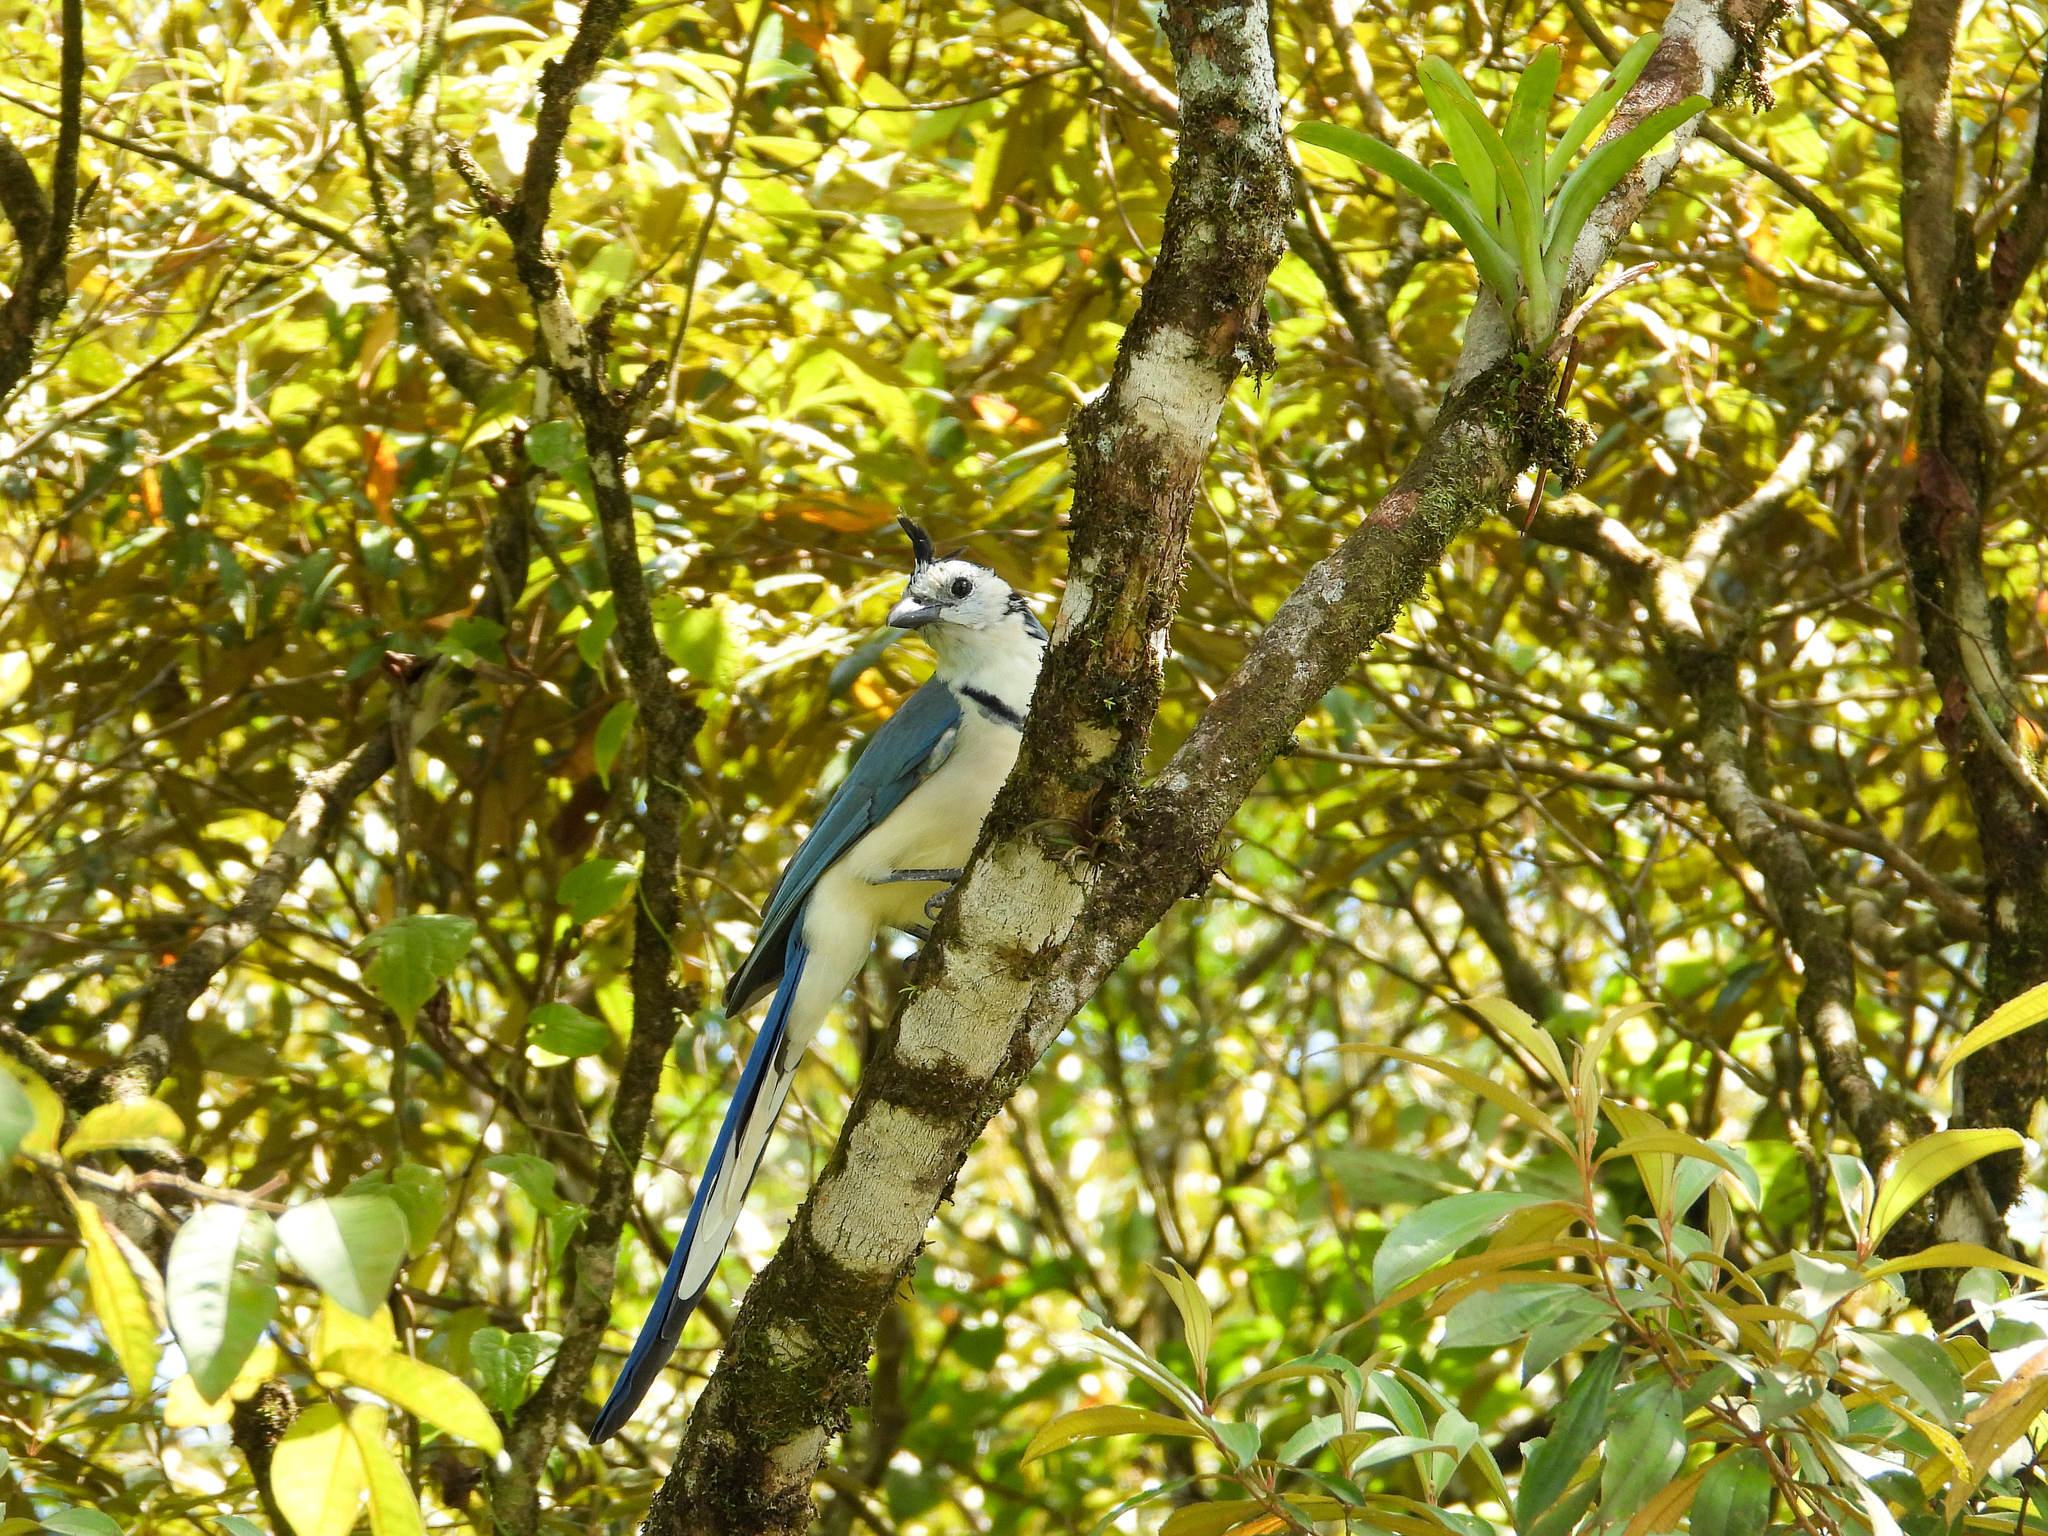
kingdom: Animalia
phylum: Chordata
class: Aves
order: Passeriformes
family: Corvidae
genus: Calocitta
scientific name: Calocitta formosa
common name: White-throated magpie-jay
